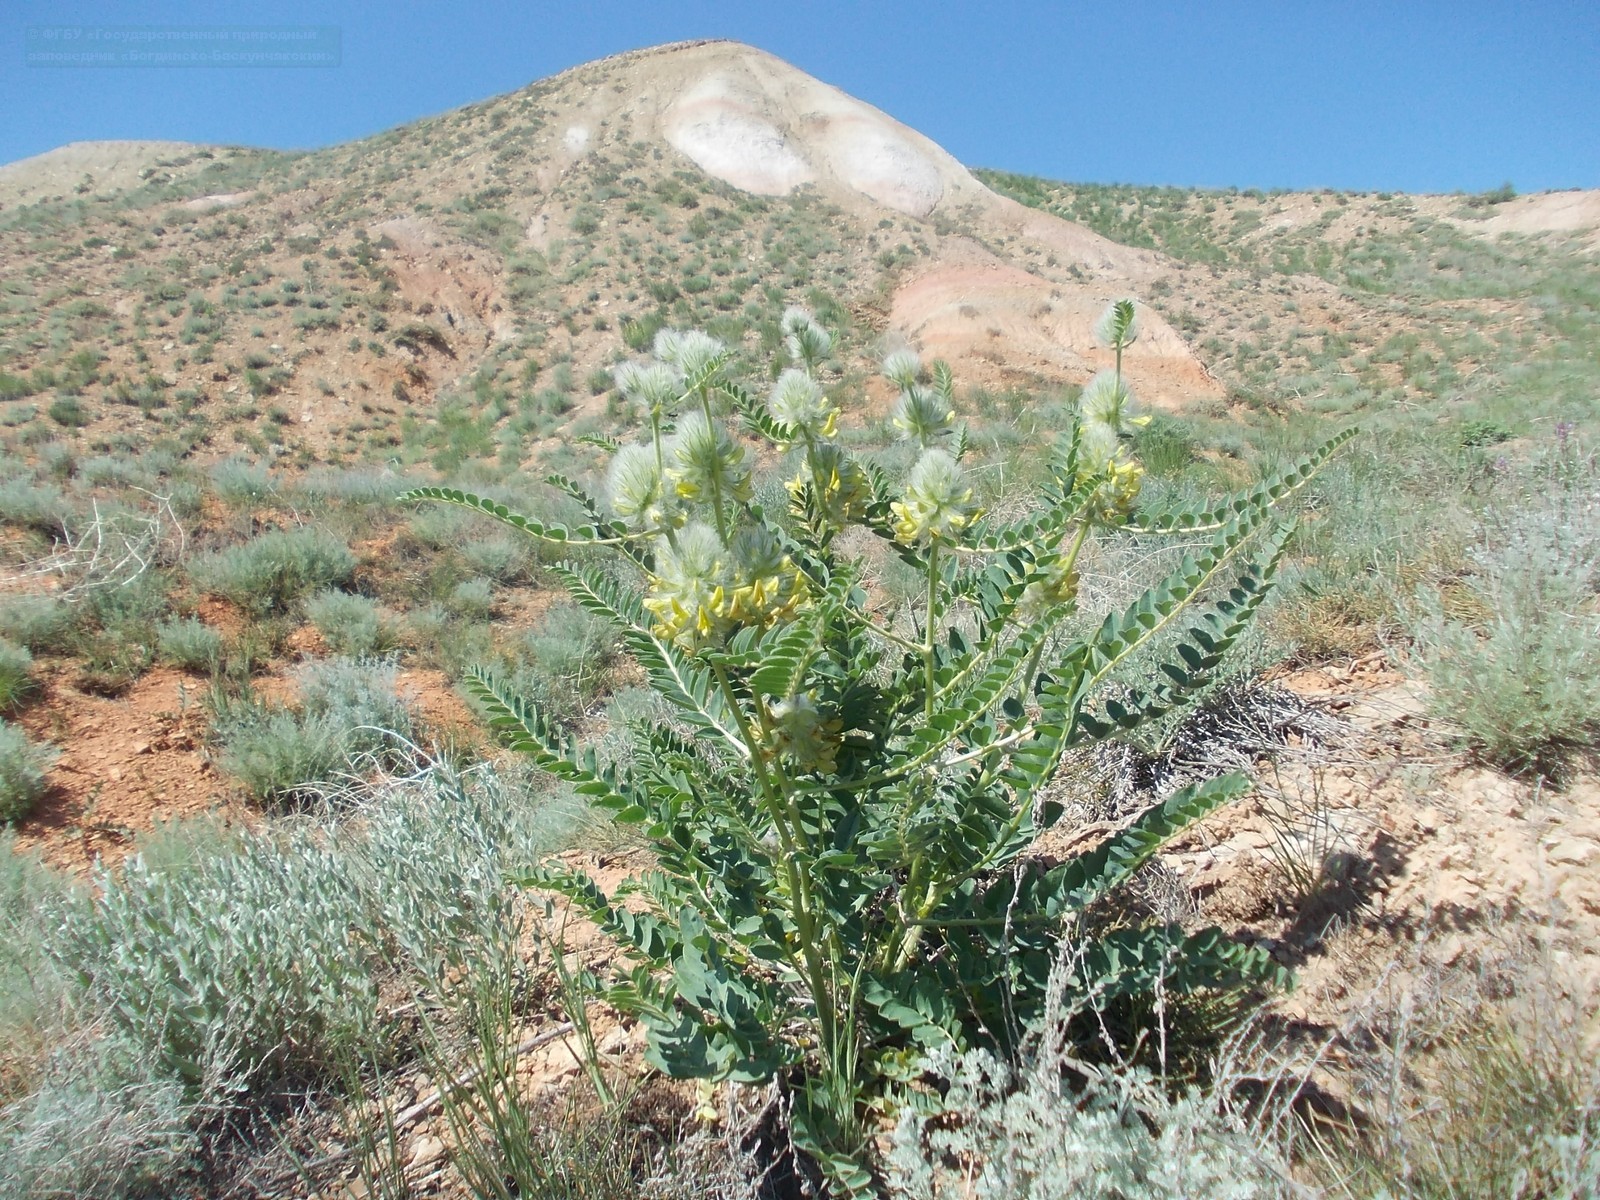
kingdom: Plantae
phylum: Tracheophyta
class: Magnoliopsida
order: Fabales
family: Fabaceae
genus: Astragalus
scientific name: Astragalus vulpinus
